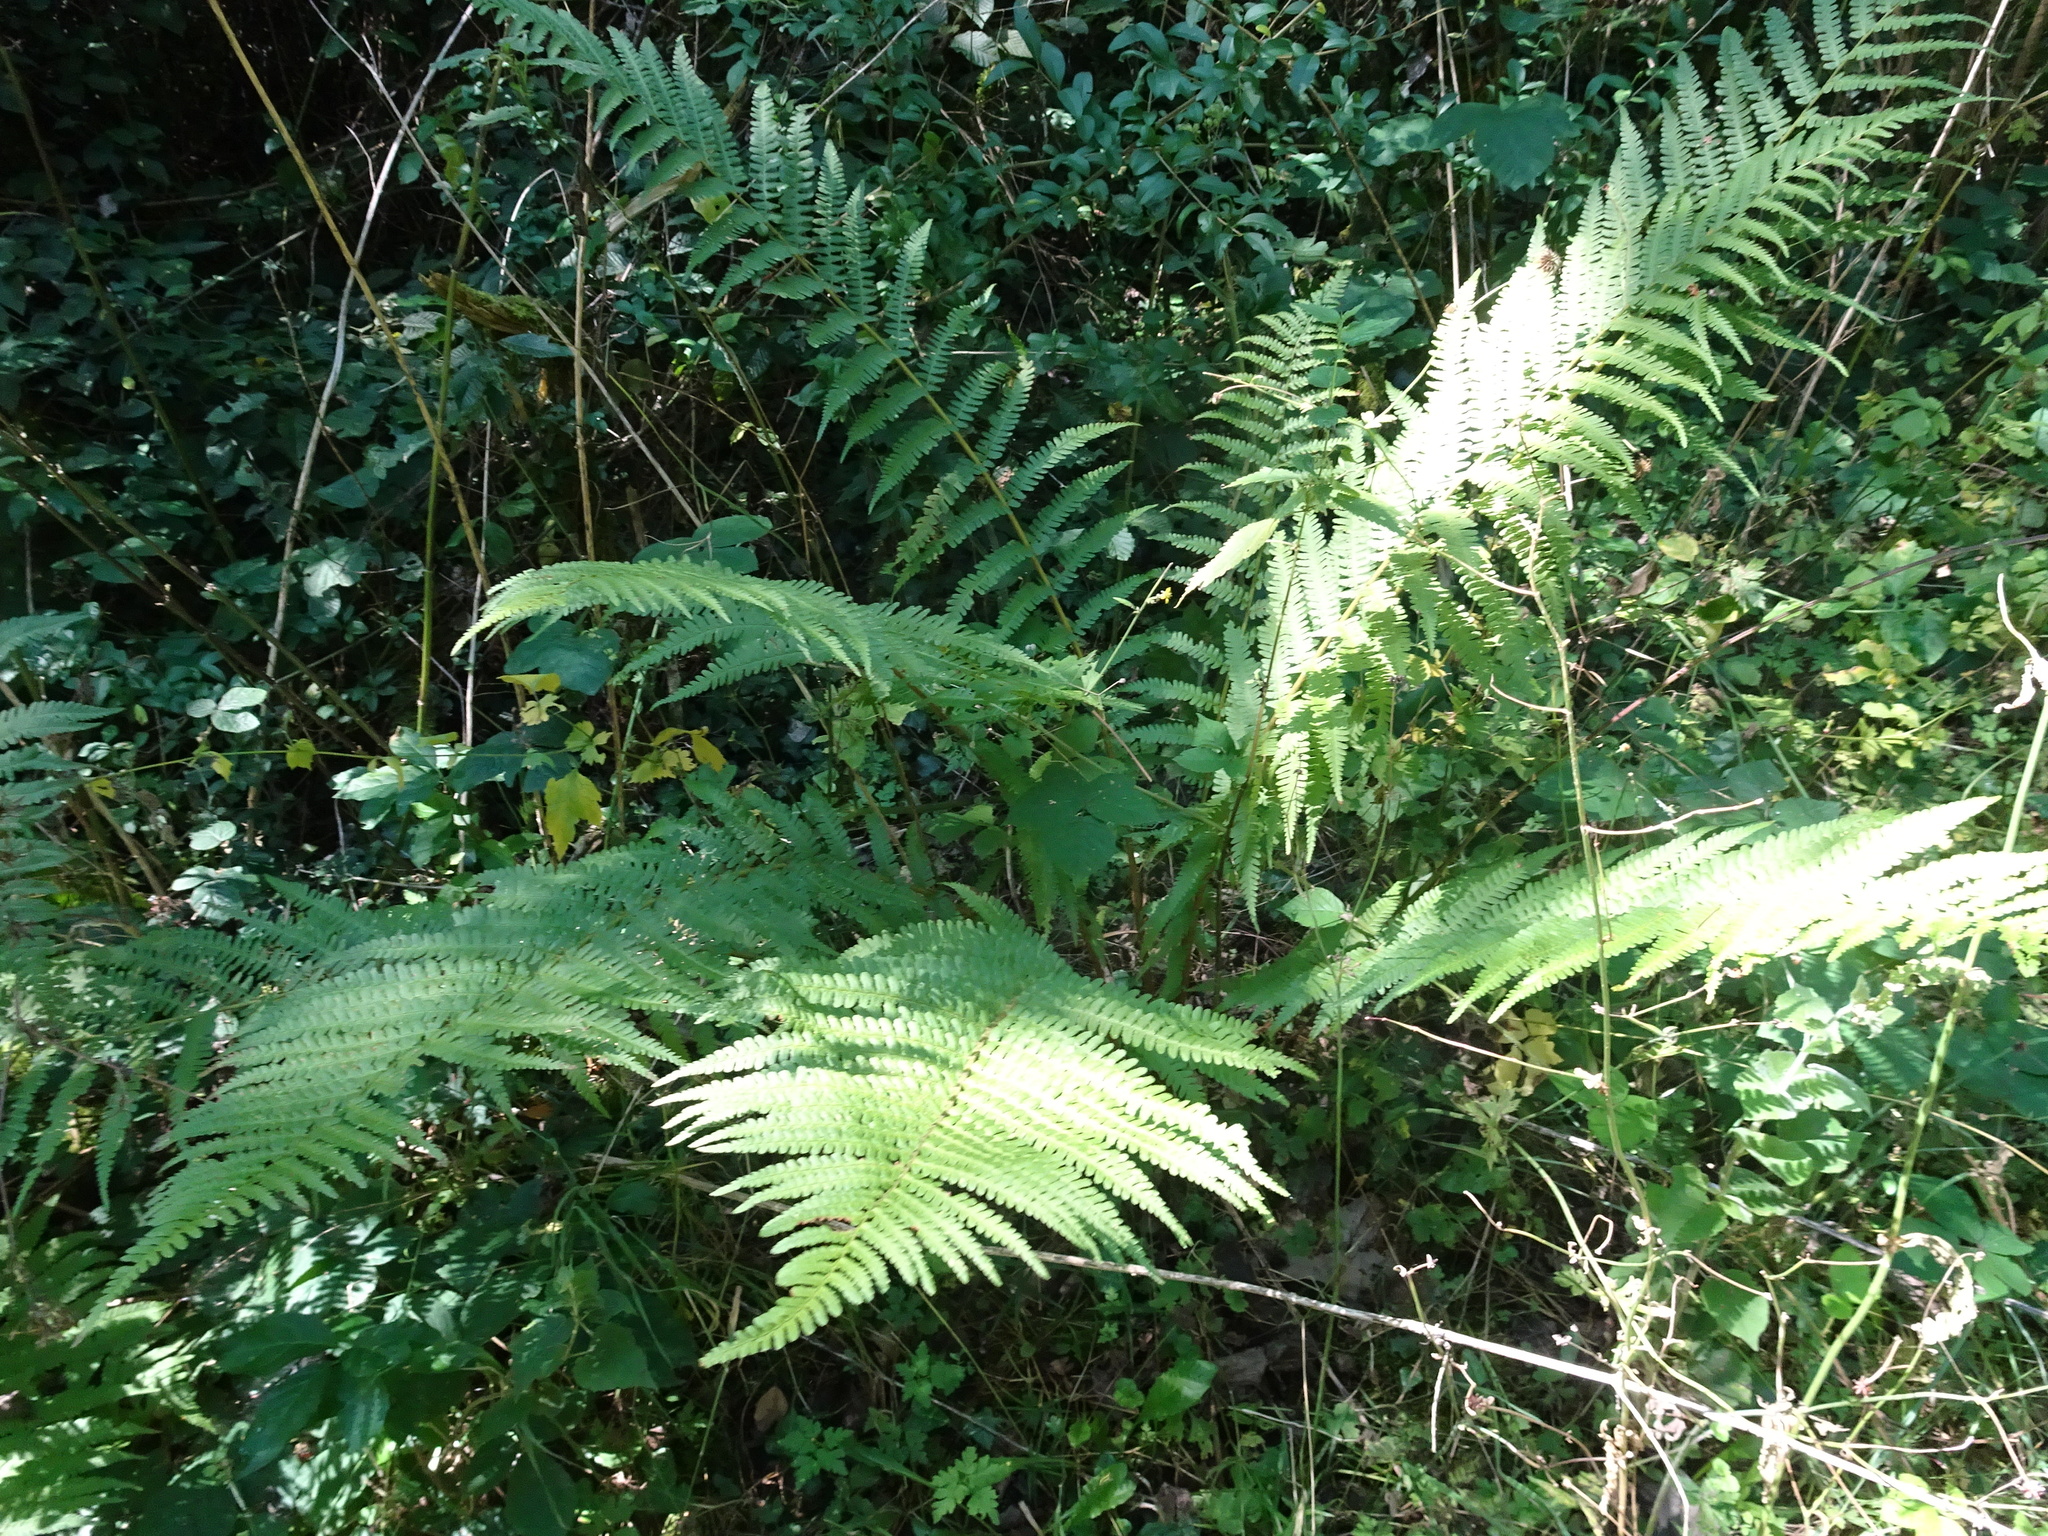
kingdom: Plantae
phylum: Tracheophyta
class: Polypodiopsida
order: Polypodiales
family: Dryopteridaceae
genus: Dryopteris
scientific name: Dryopteris filix-mas
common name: Male fern
